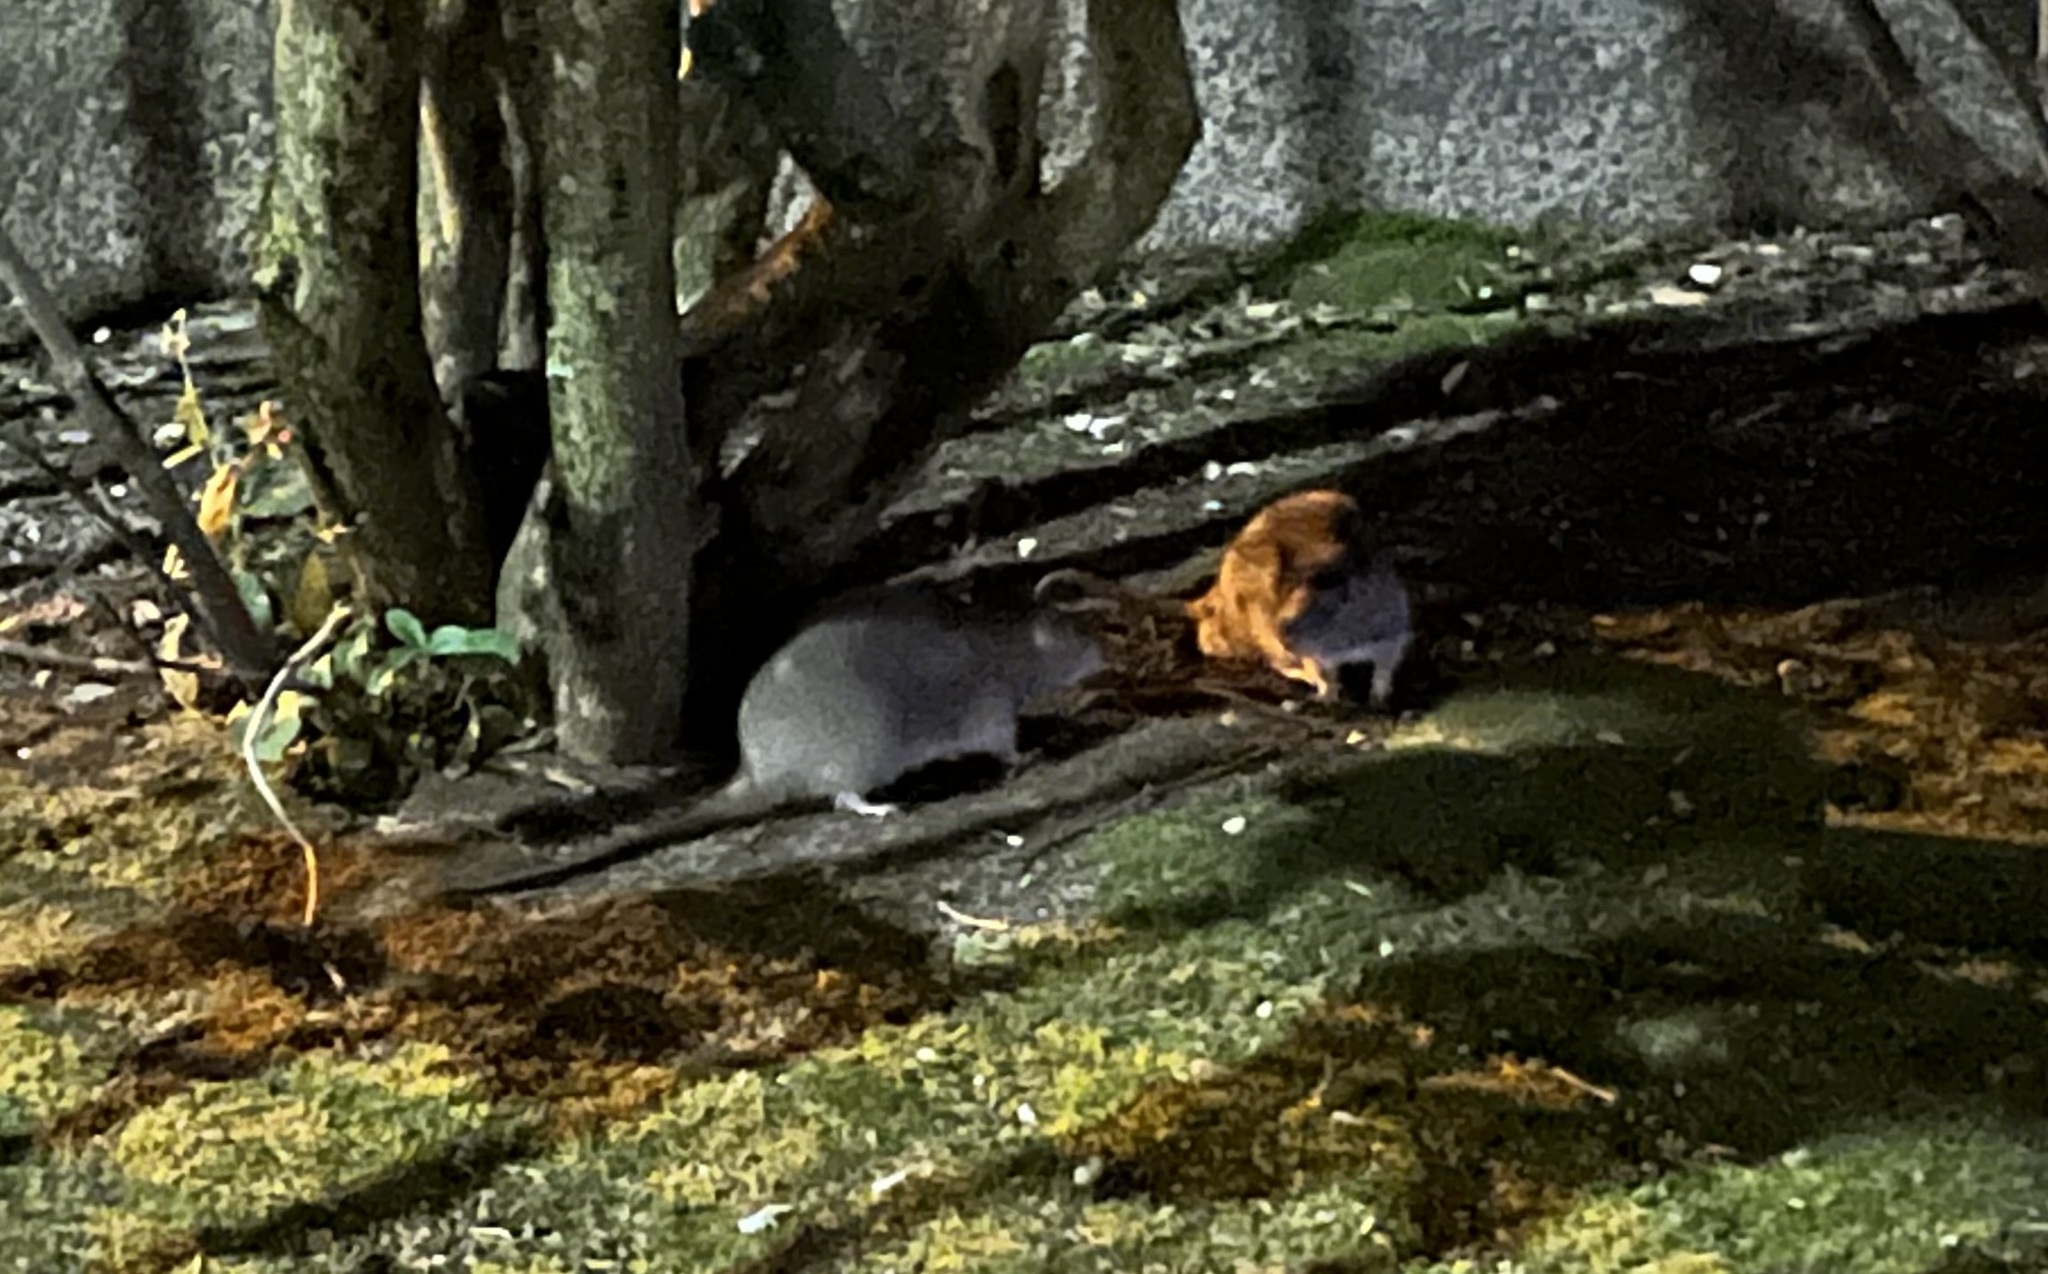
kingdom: Animalia
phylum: Chordata
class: Mammalia
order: Rodentia
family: Muridae
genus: Rattus
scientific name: Rattus norvegicus
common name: Brown rat
